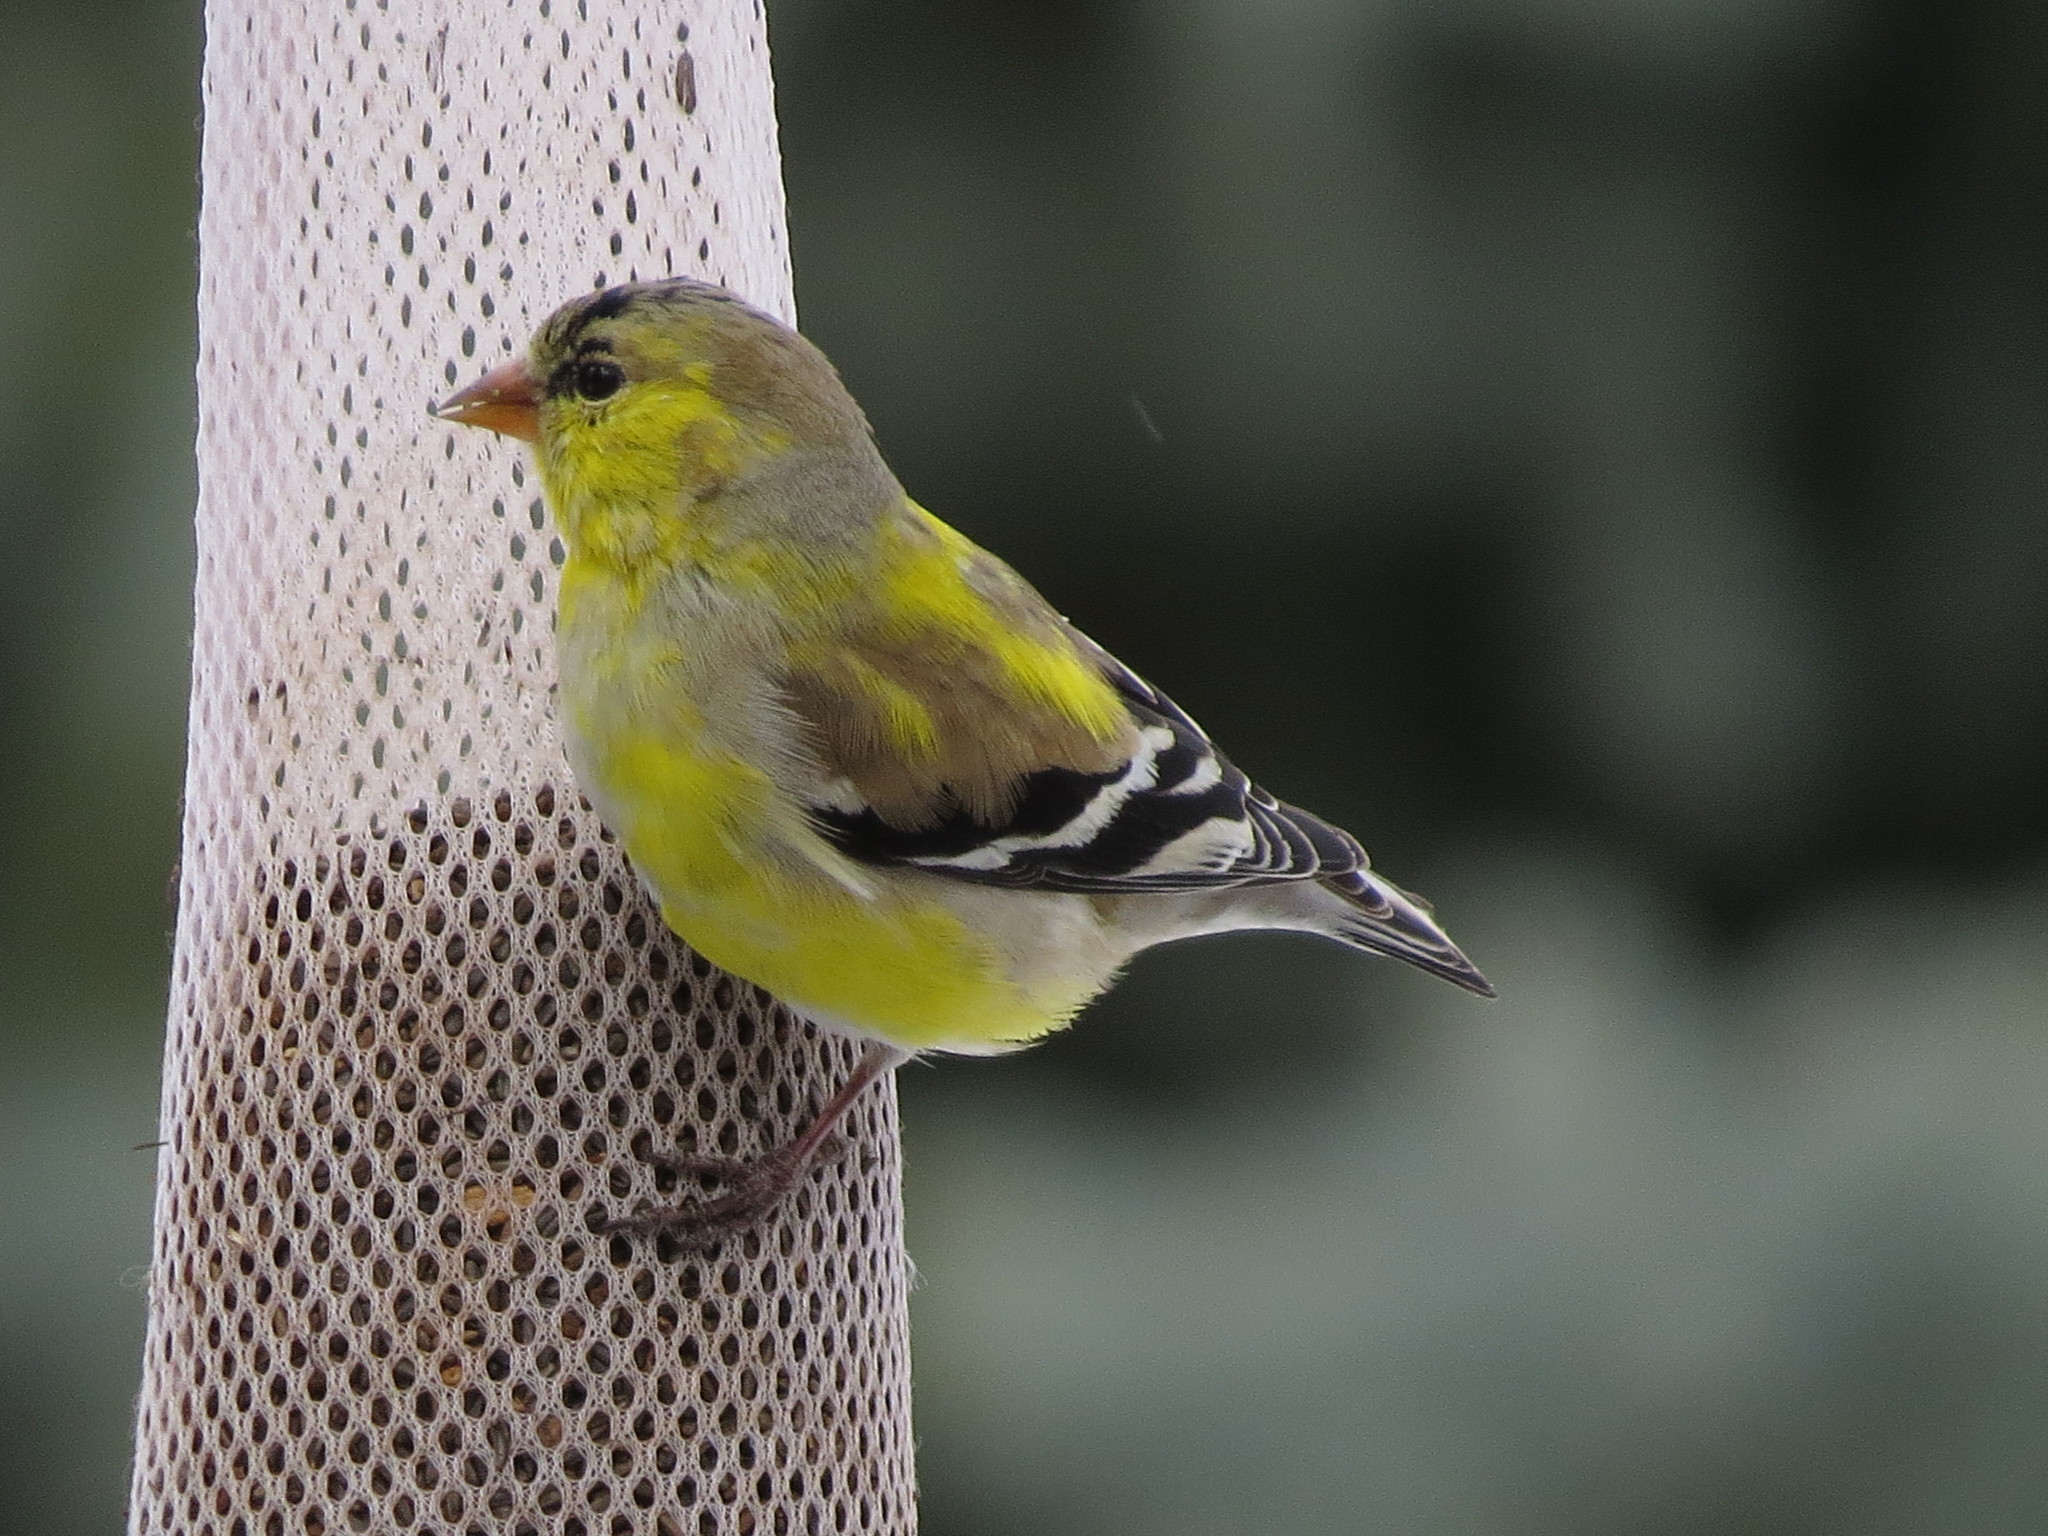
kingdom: Animalia
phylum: Chordata
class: Aves
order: Passeriformes
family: Fringillidae
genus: Spinus
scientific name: Spinus tristis
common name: American goldfinch
